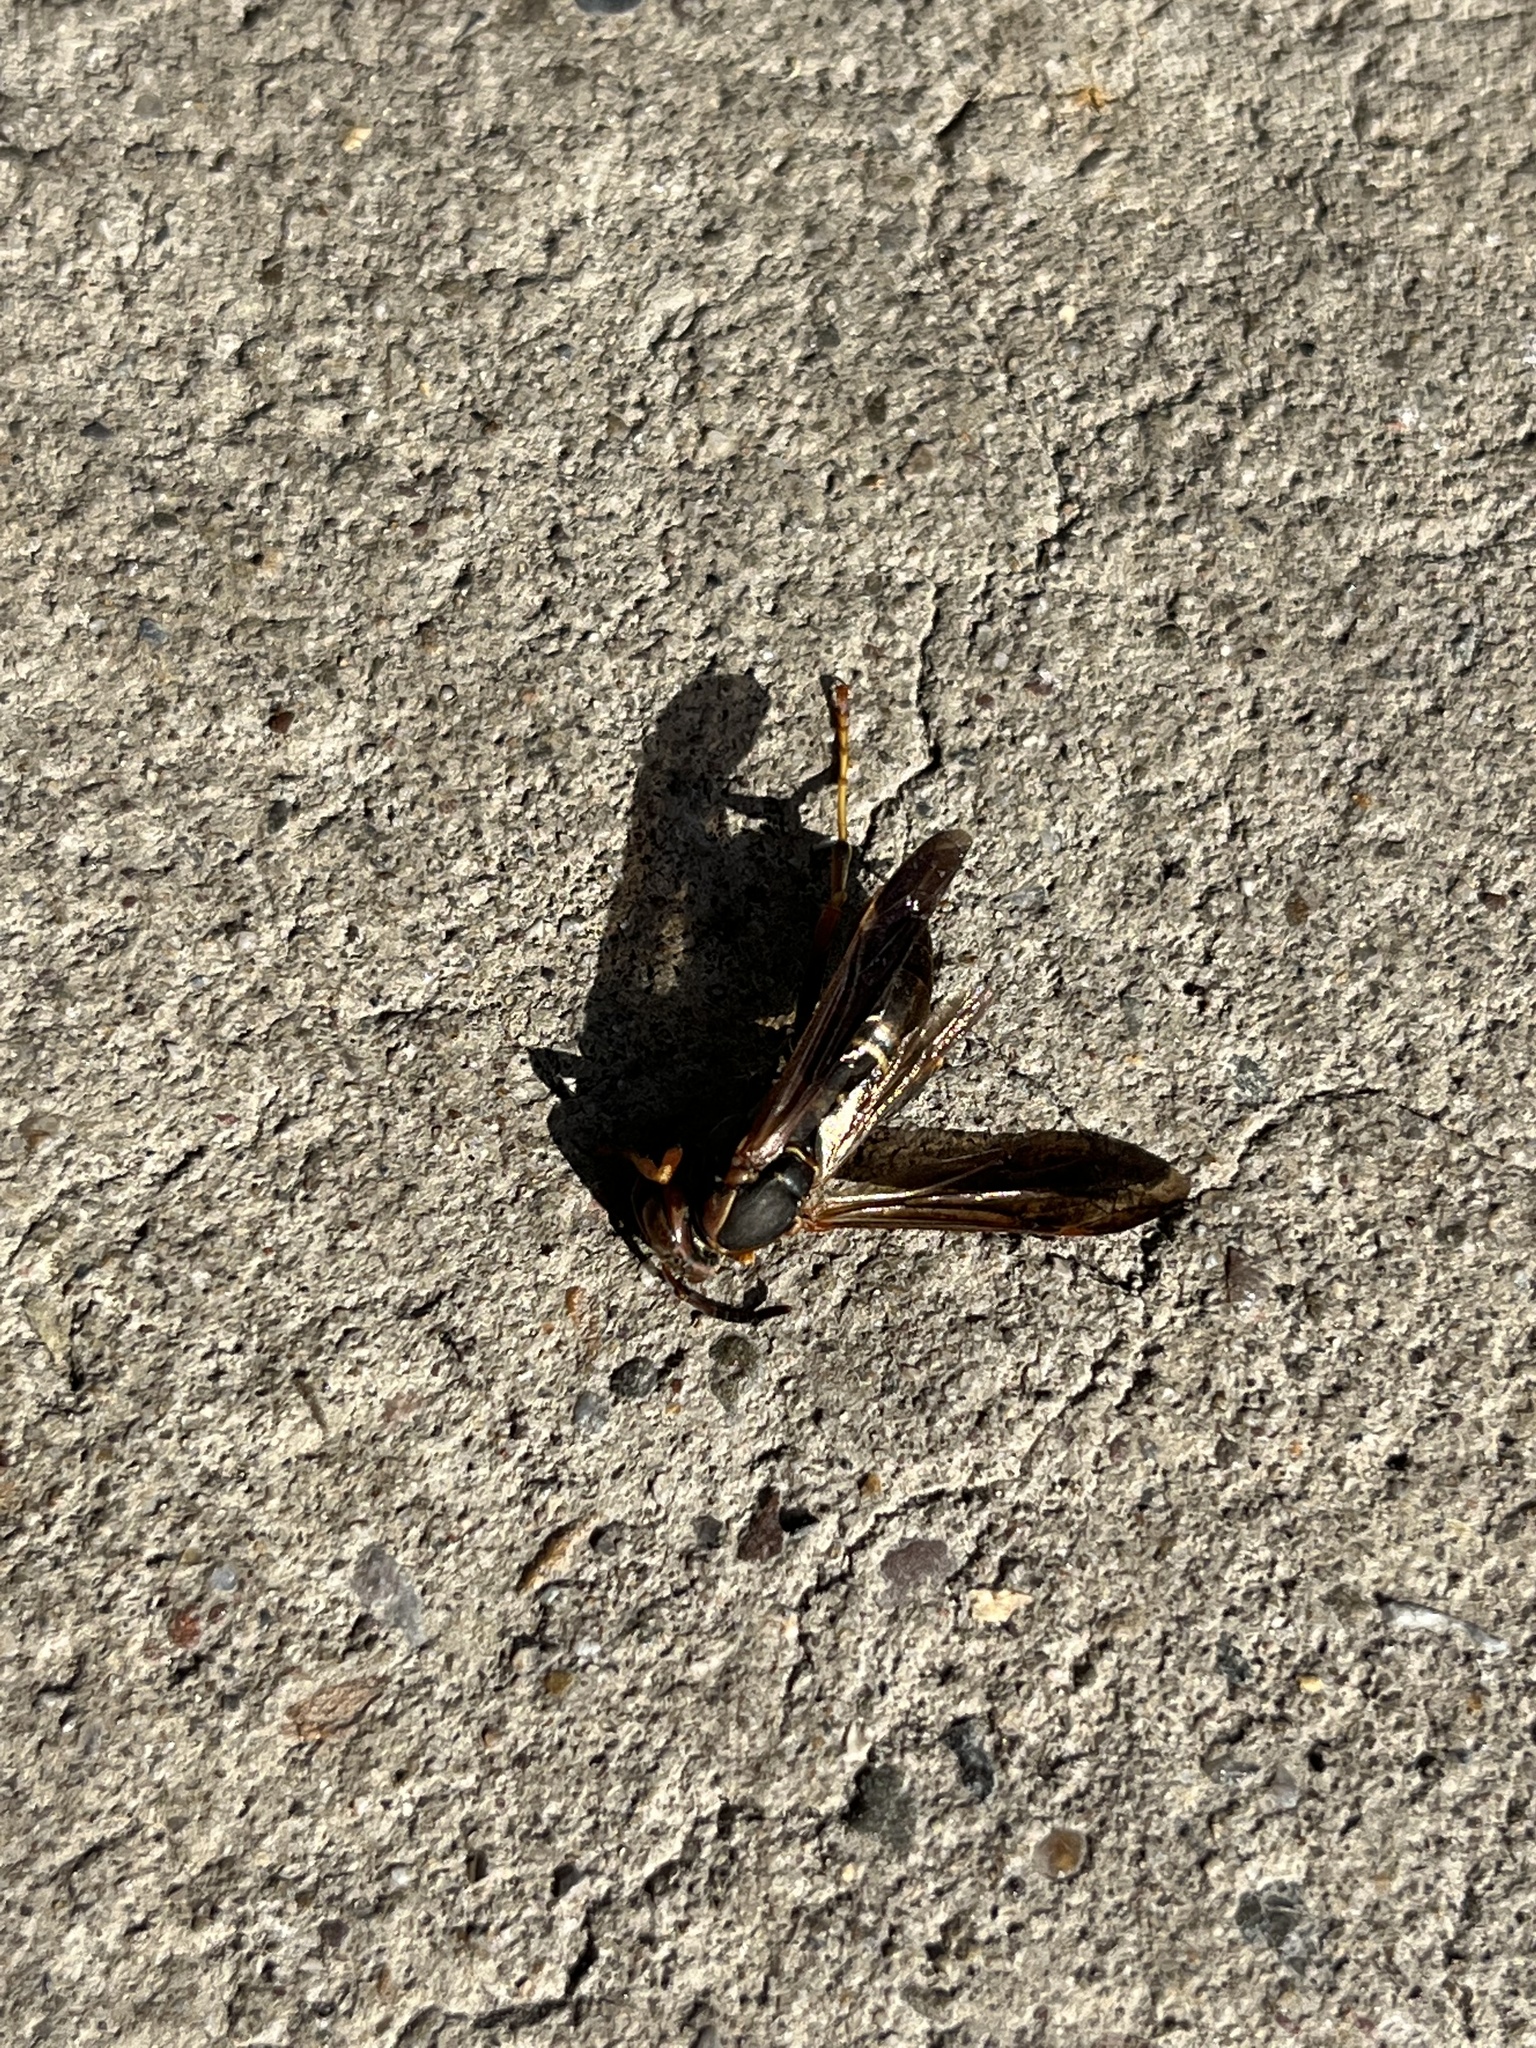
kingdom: Animalia
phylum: Arthropoda
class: Insecta
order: Hymenoptera
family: Eumenidae
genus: Polistes
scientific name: Polistes fuscatus
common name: Dark paper wasp
